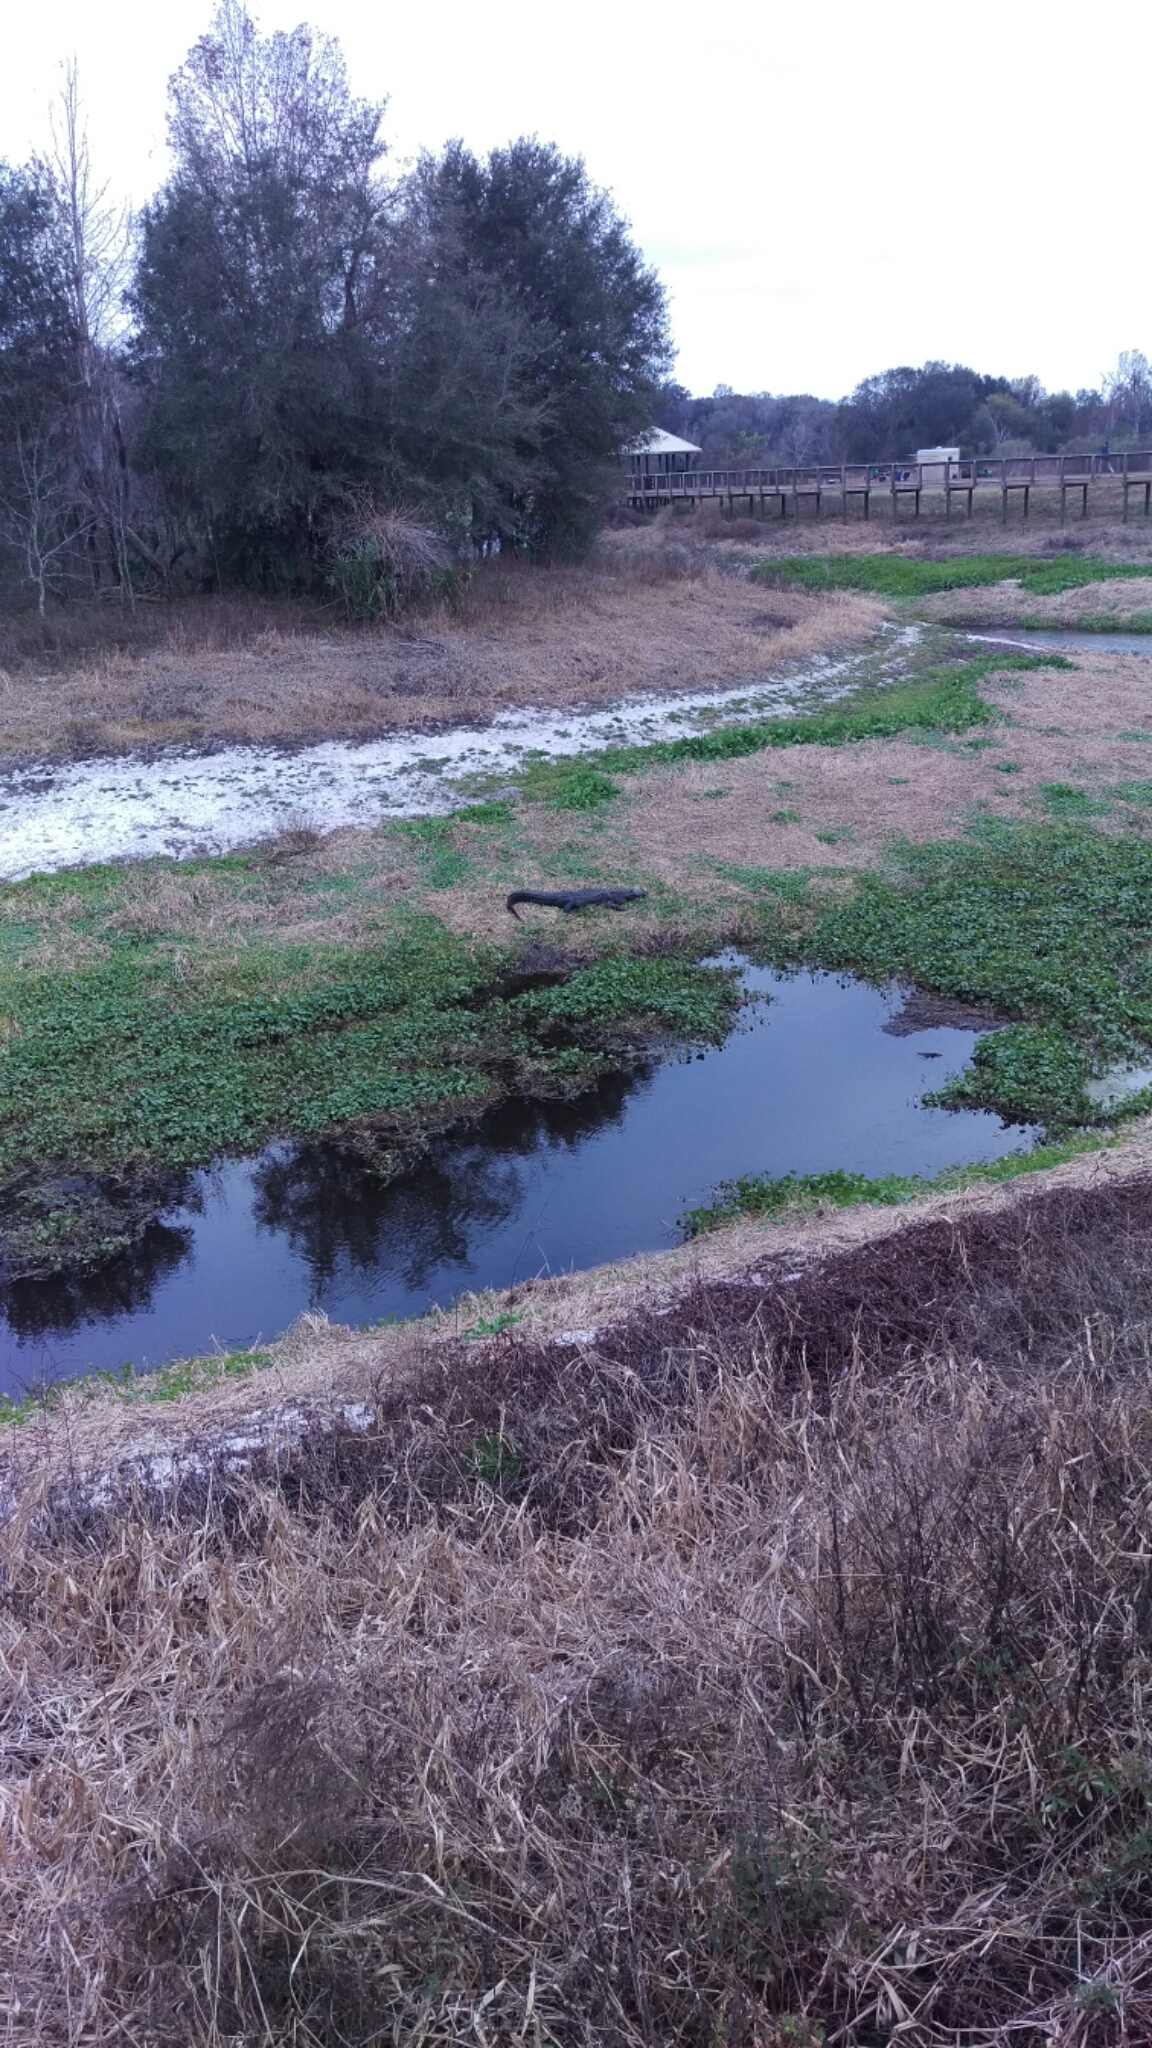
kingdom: Animalia
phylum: Chordata
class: Crocodylia
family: Alligatoridae
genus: Alligator
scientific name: Alligator mississippiensis
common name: American alligator
